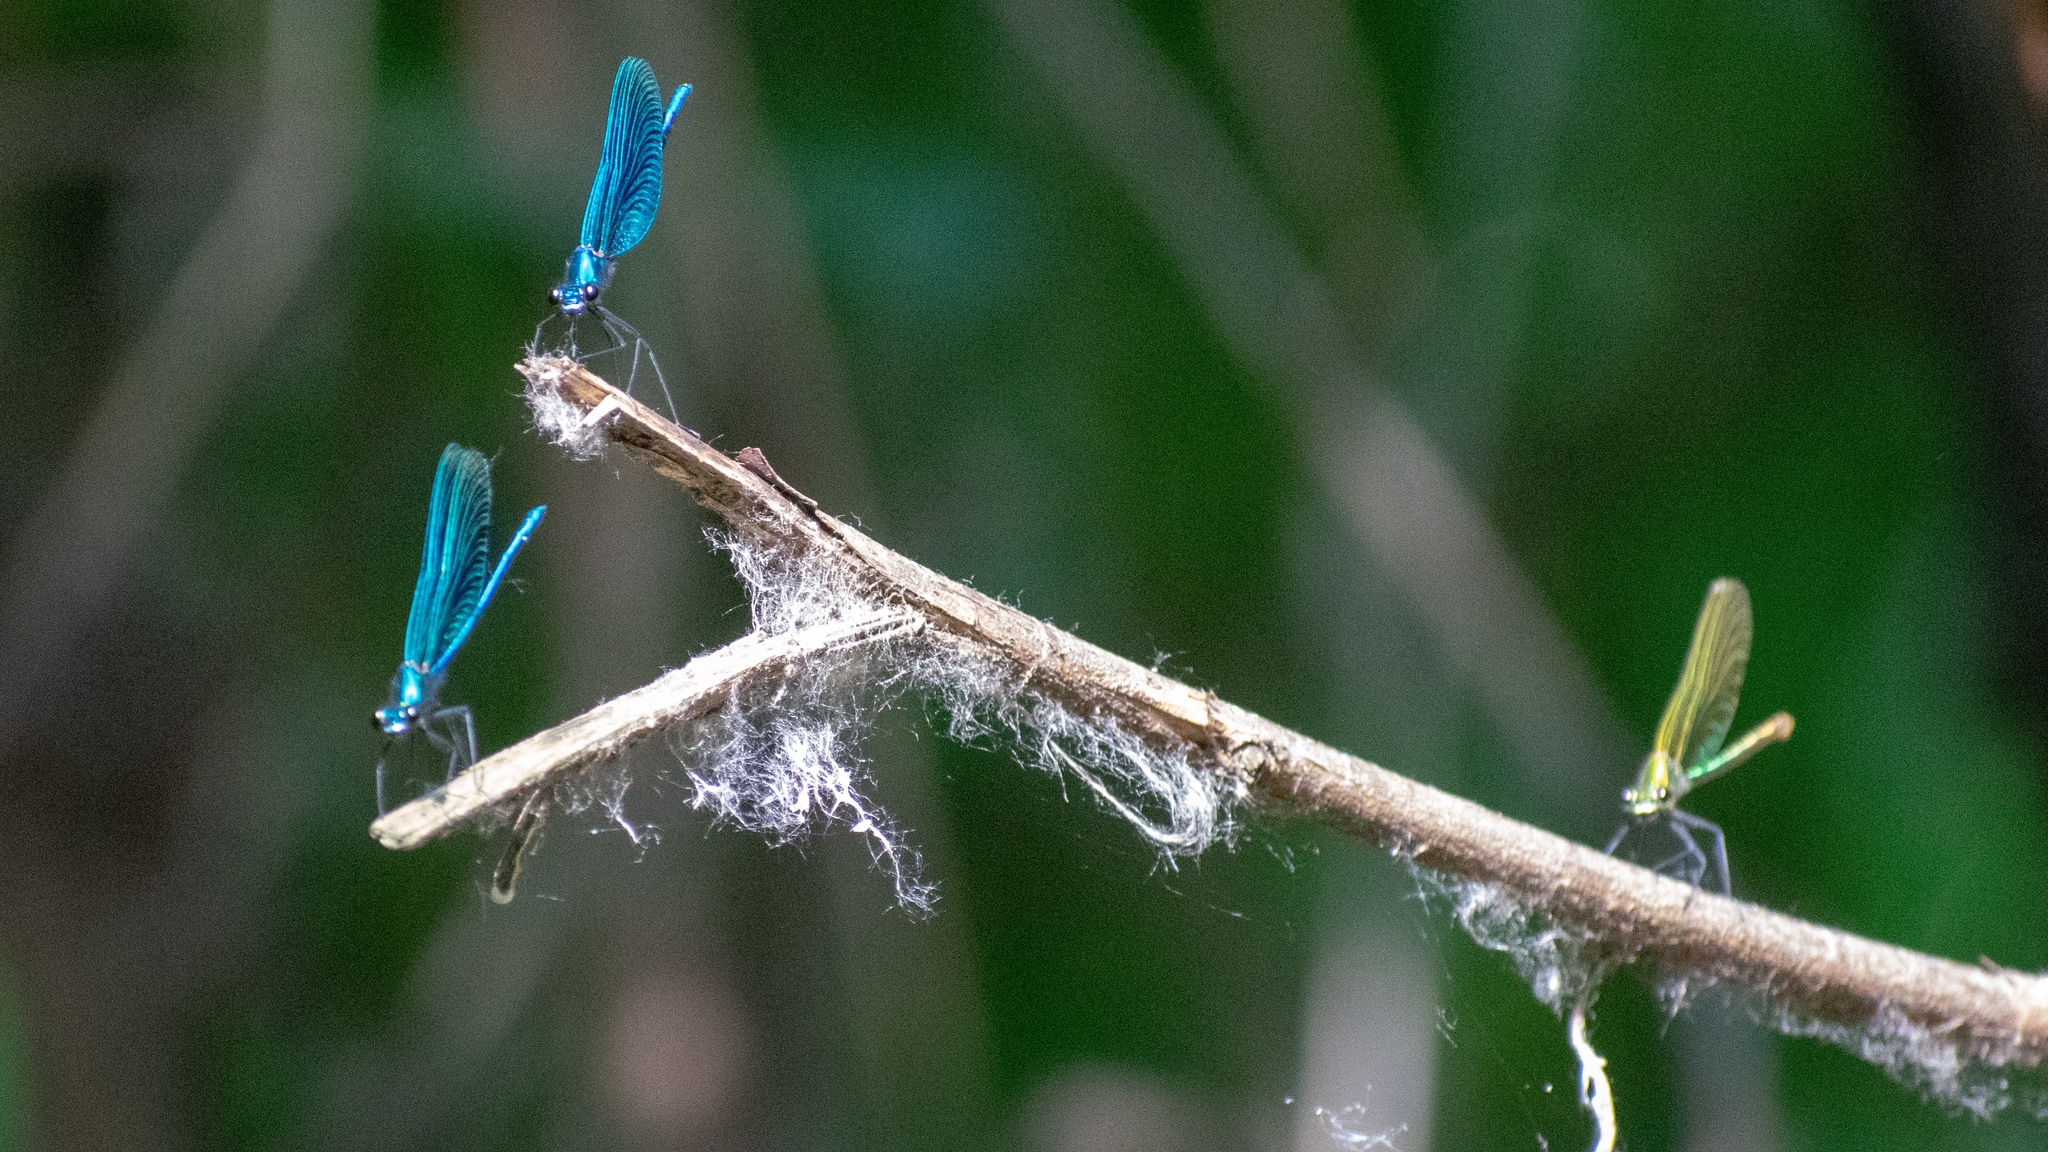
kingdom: Animalia
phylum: Arthropoda
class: Insecta
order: Odonata
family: Calopterygidae
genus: Calopteryx
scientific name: Calopteryx splendens
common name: Banded demoiselle
